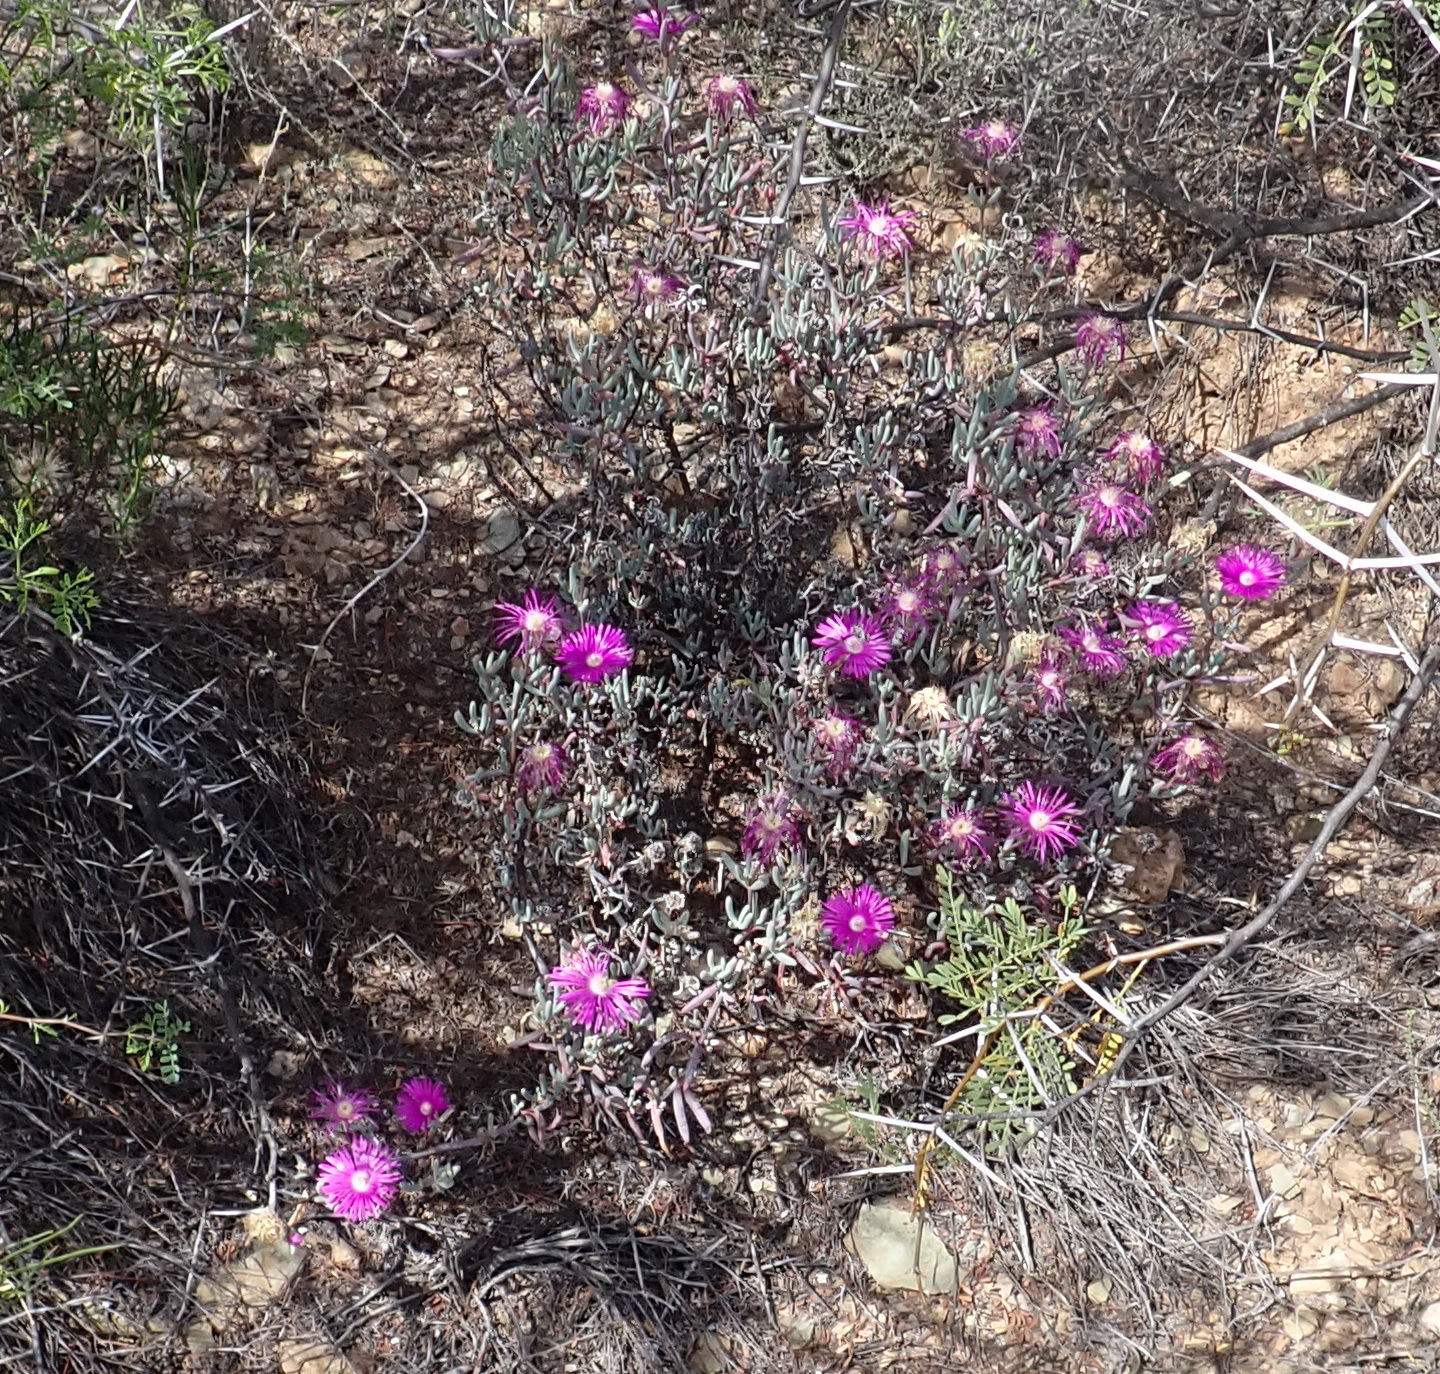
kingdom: Plantae
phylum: Tracheophyta
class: Magnoliopsida
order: Caryophyllales
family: Aizoaceae
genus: Lampranthus
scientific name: Lampranthus haworthii
